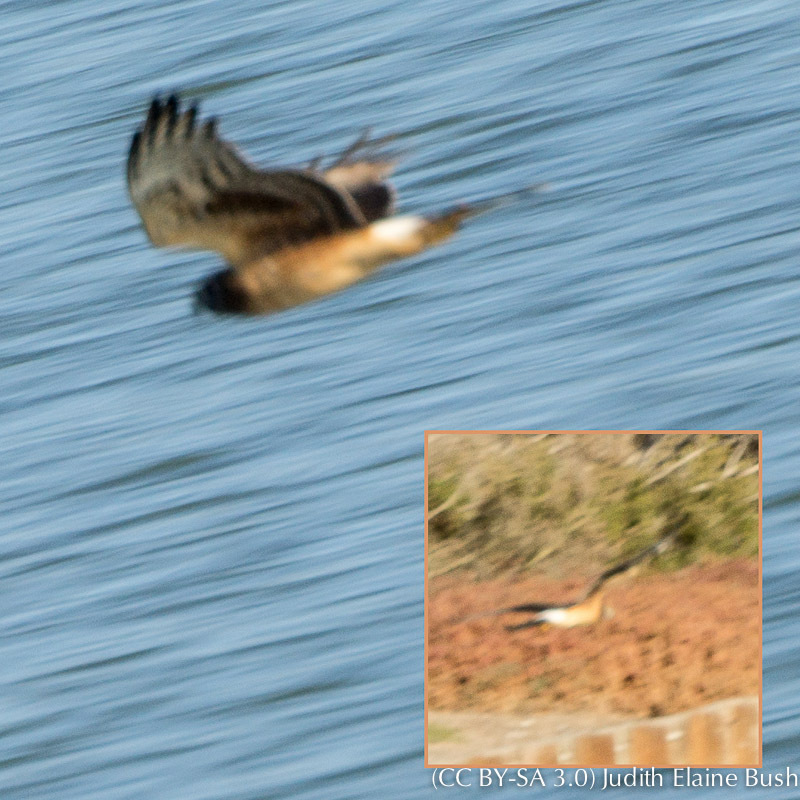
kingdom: Animalia
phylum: Chordata
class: Aves
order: Accipitriformes
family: Accipitridae
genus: Circus
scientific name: Circus cyaneus
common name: Hen harrier
